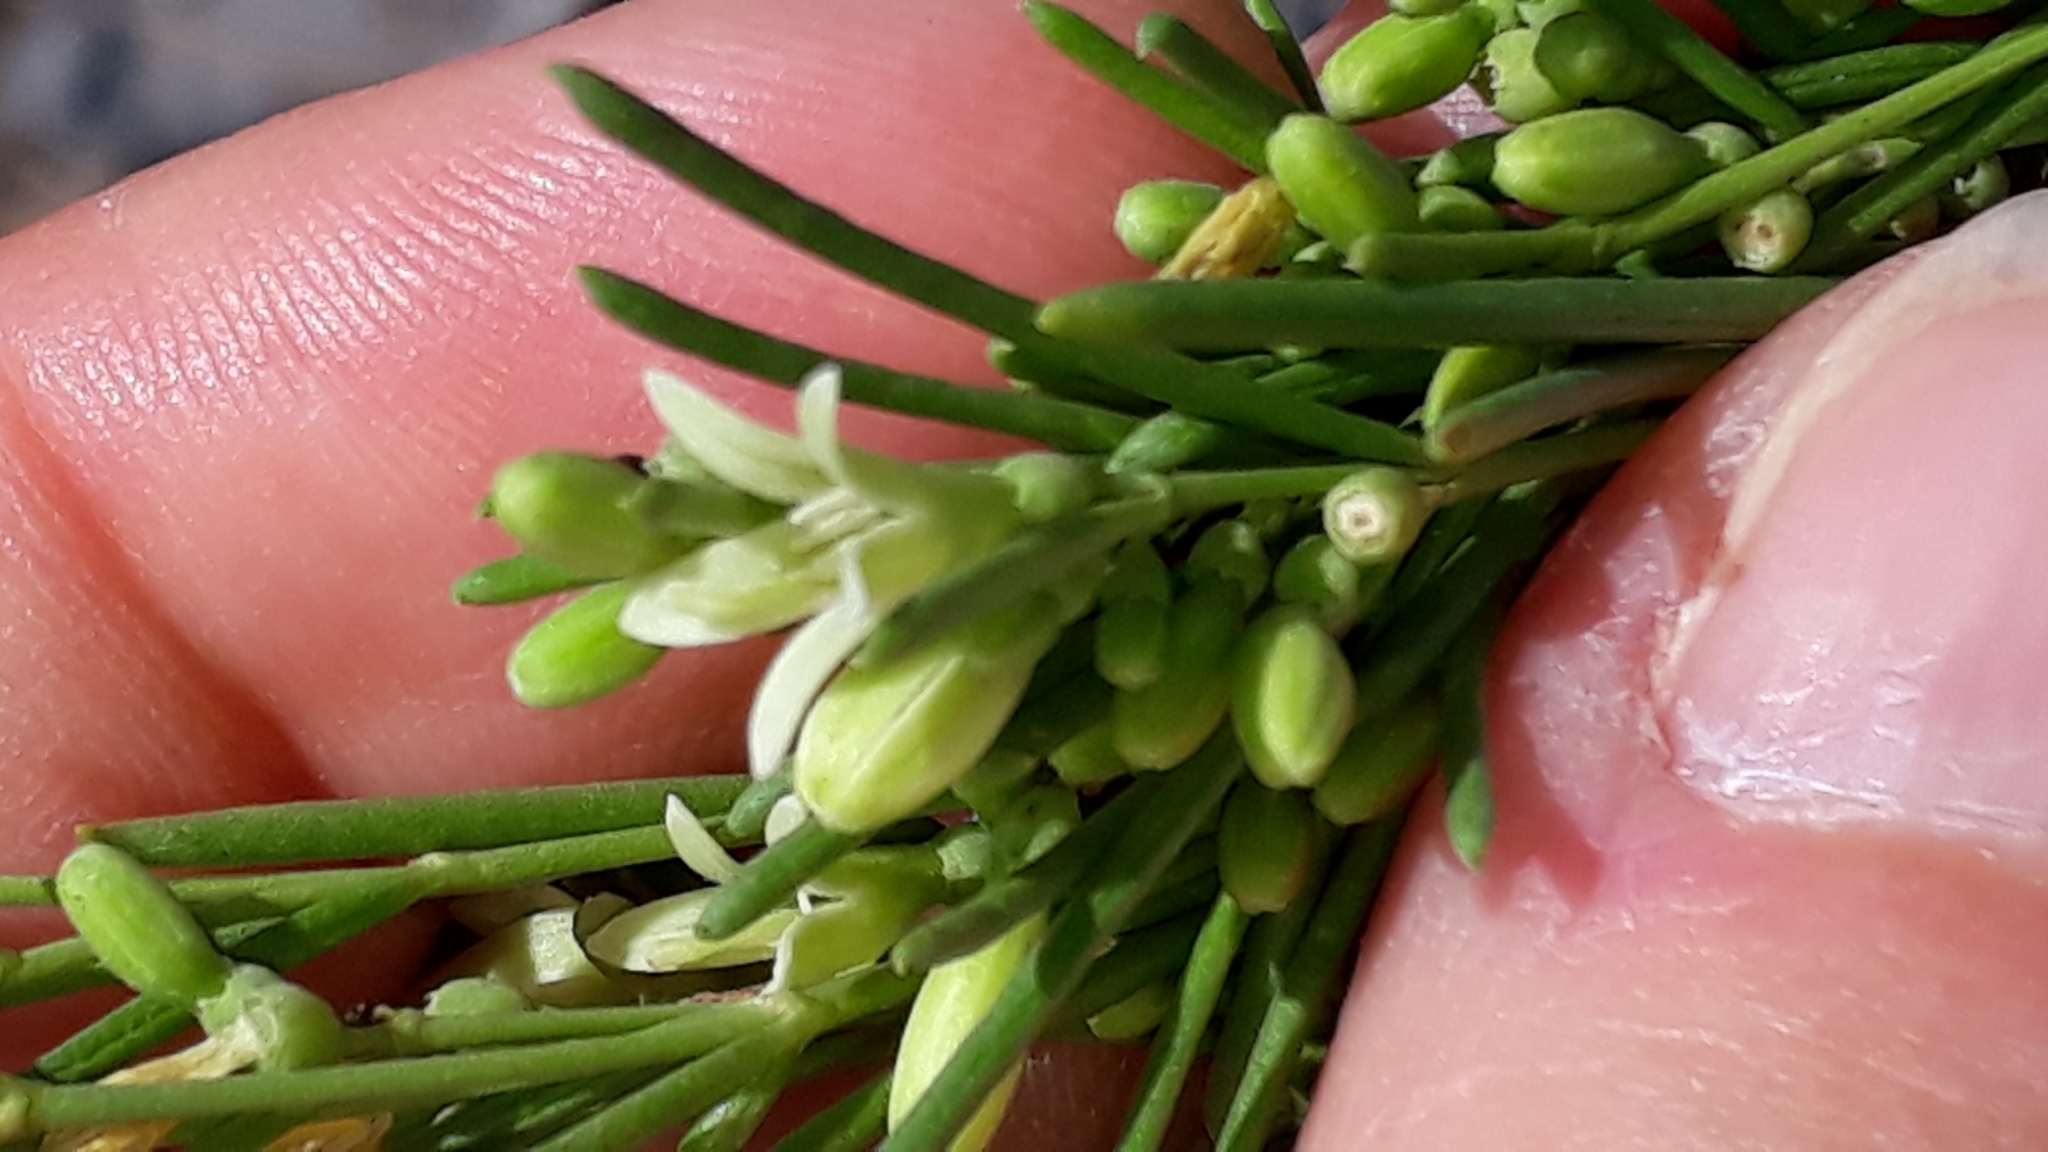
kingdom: Plantae
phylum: Tracheophyta
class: Magnoliopsida
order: Gentianales
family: Rubiaceae
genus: Plocama
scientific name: Plocama pendula
